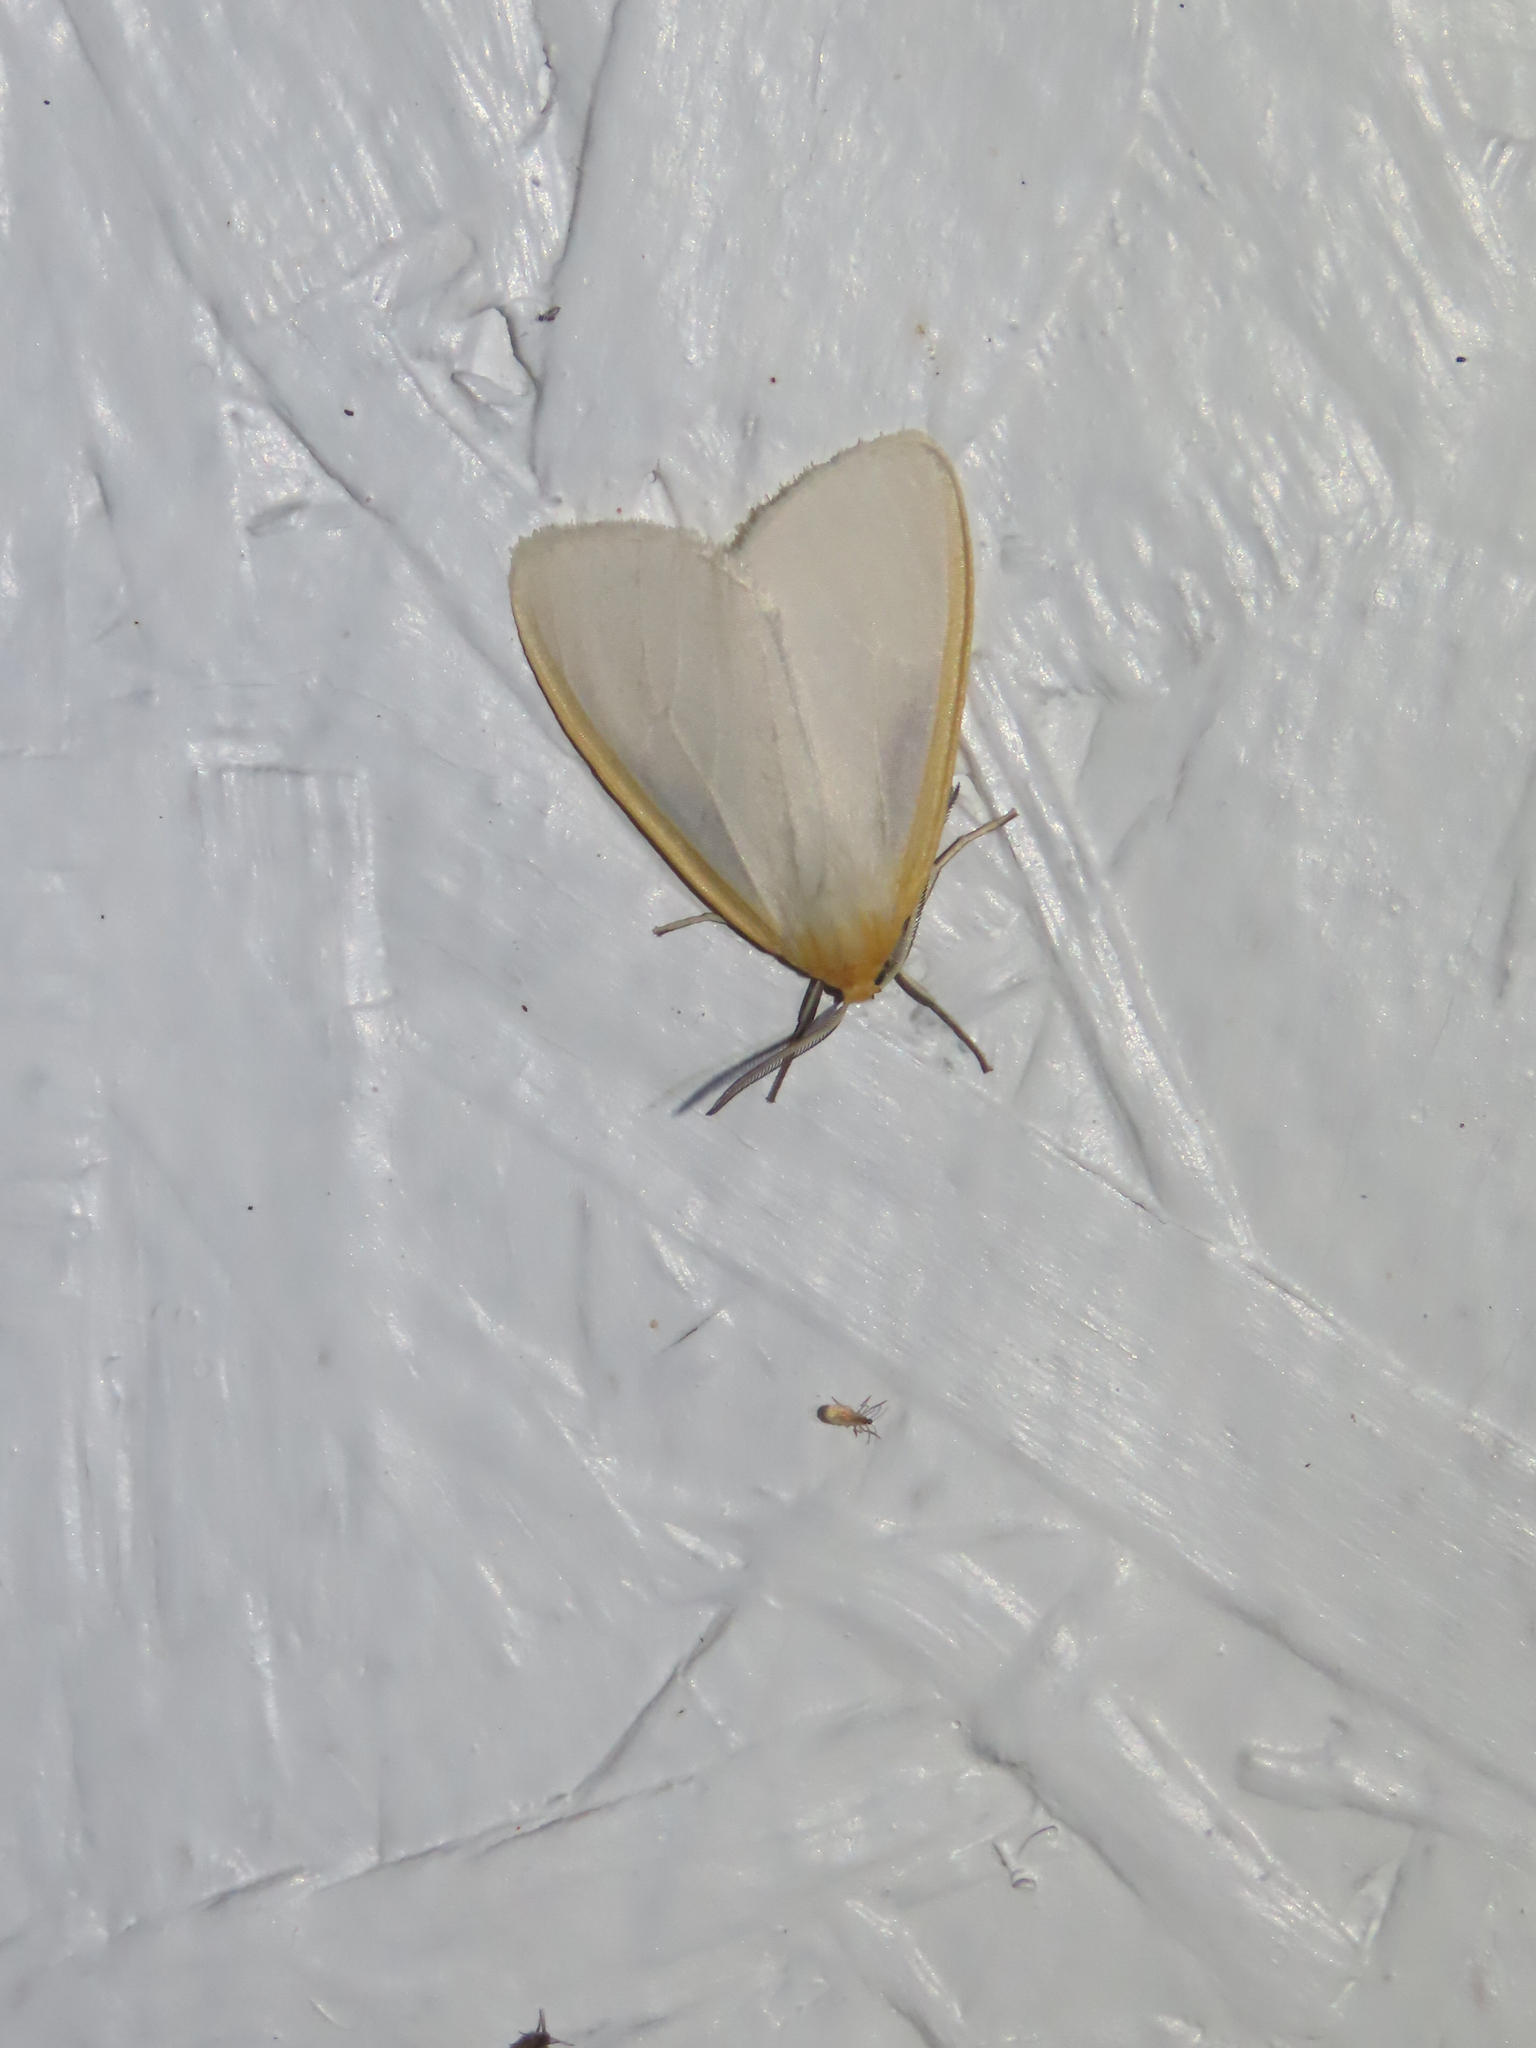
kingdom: Animalia
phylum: Arthropoda
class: Insecta
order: Lepidoptera
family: Erebidae
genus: Cycnia
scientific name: Cycnia tenera
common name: Delicate cycnia moth
